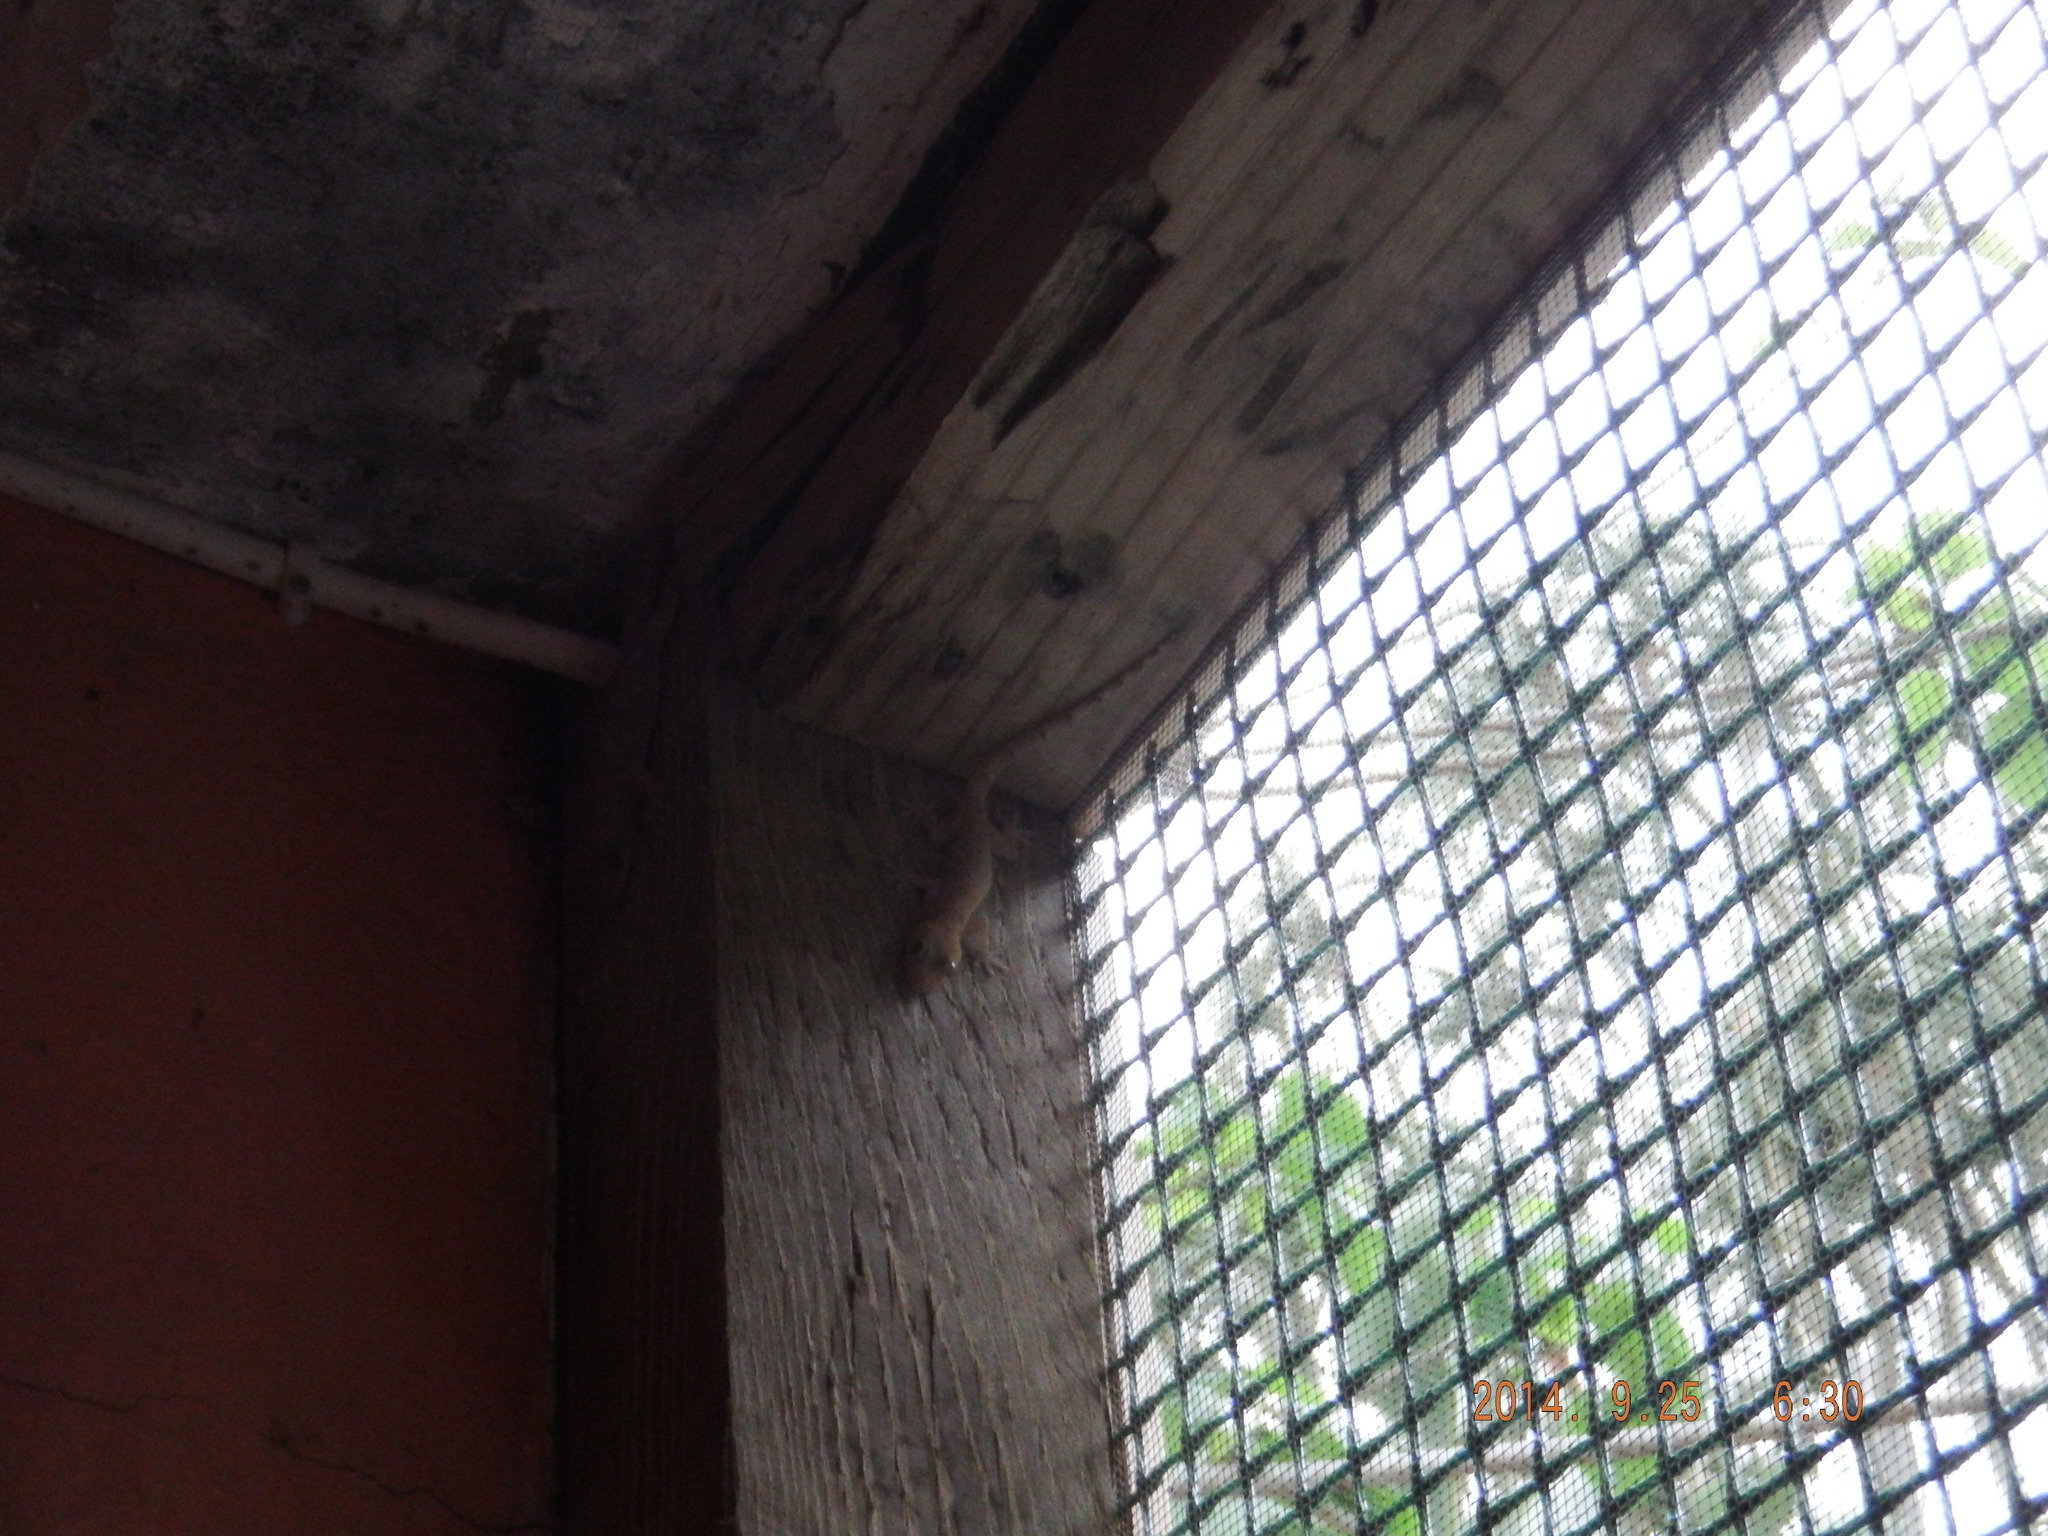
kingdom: Animalia
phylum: Chordata
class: Squamata
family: Gekkonidae
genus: Hemidactylus
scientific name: Hemidactylus mabouia
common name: House gecko
